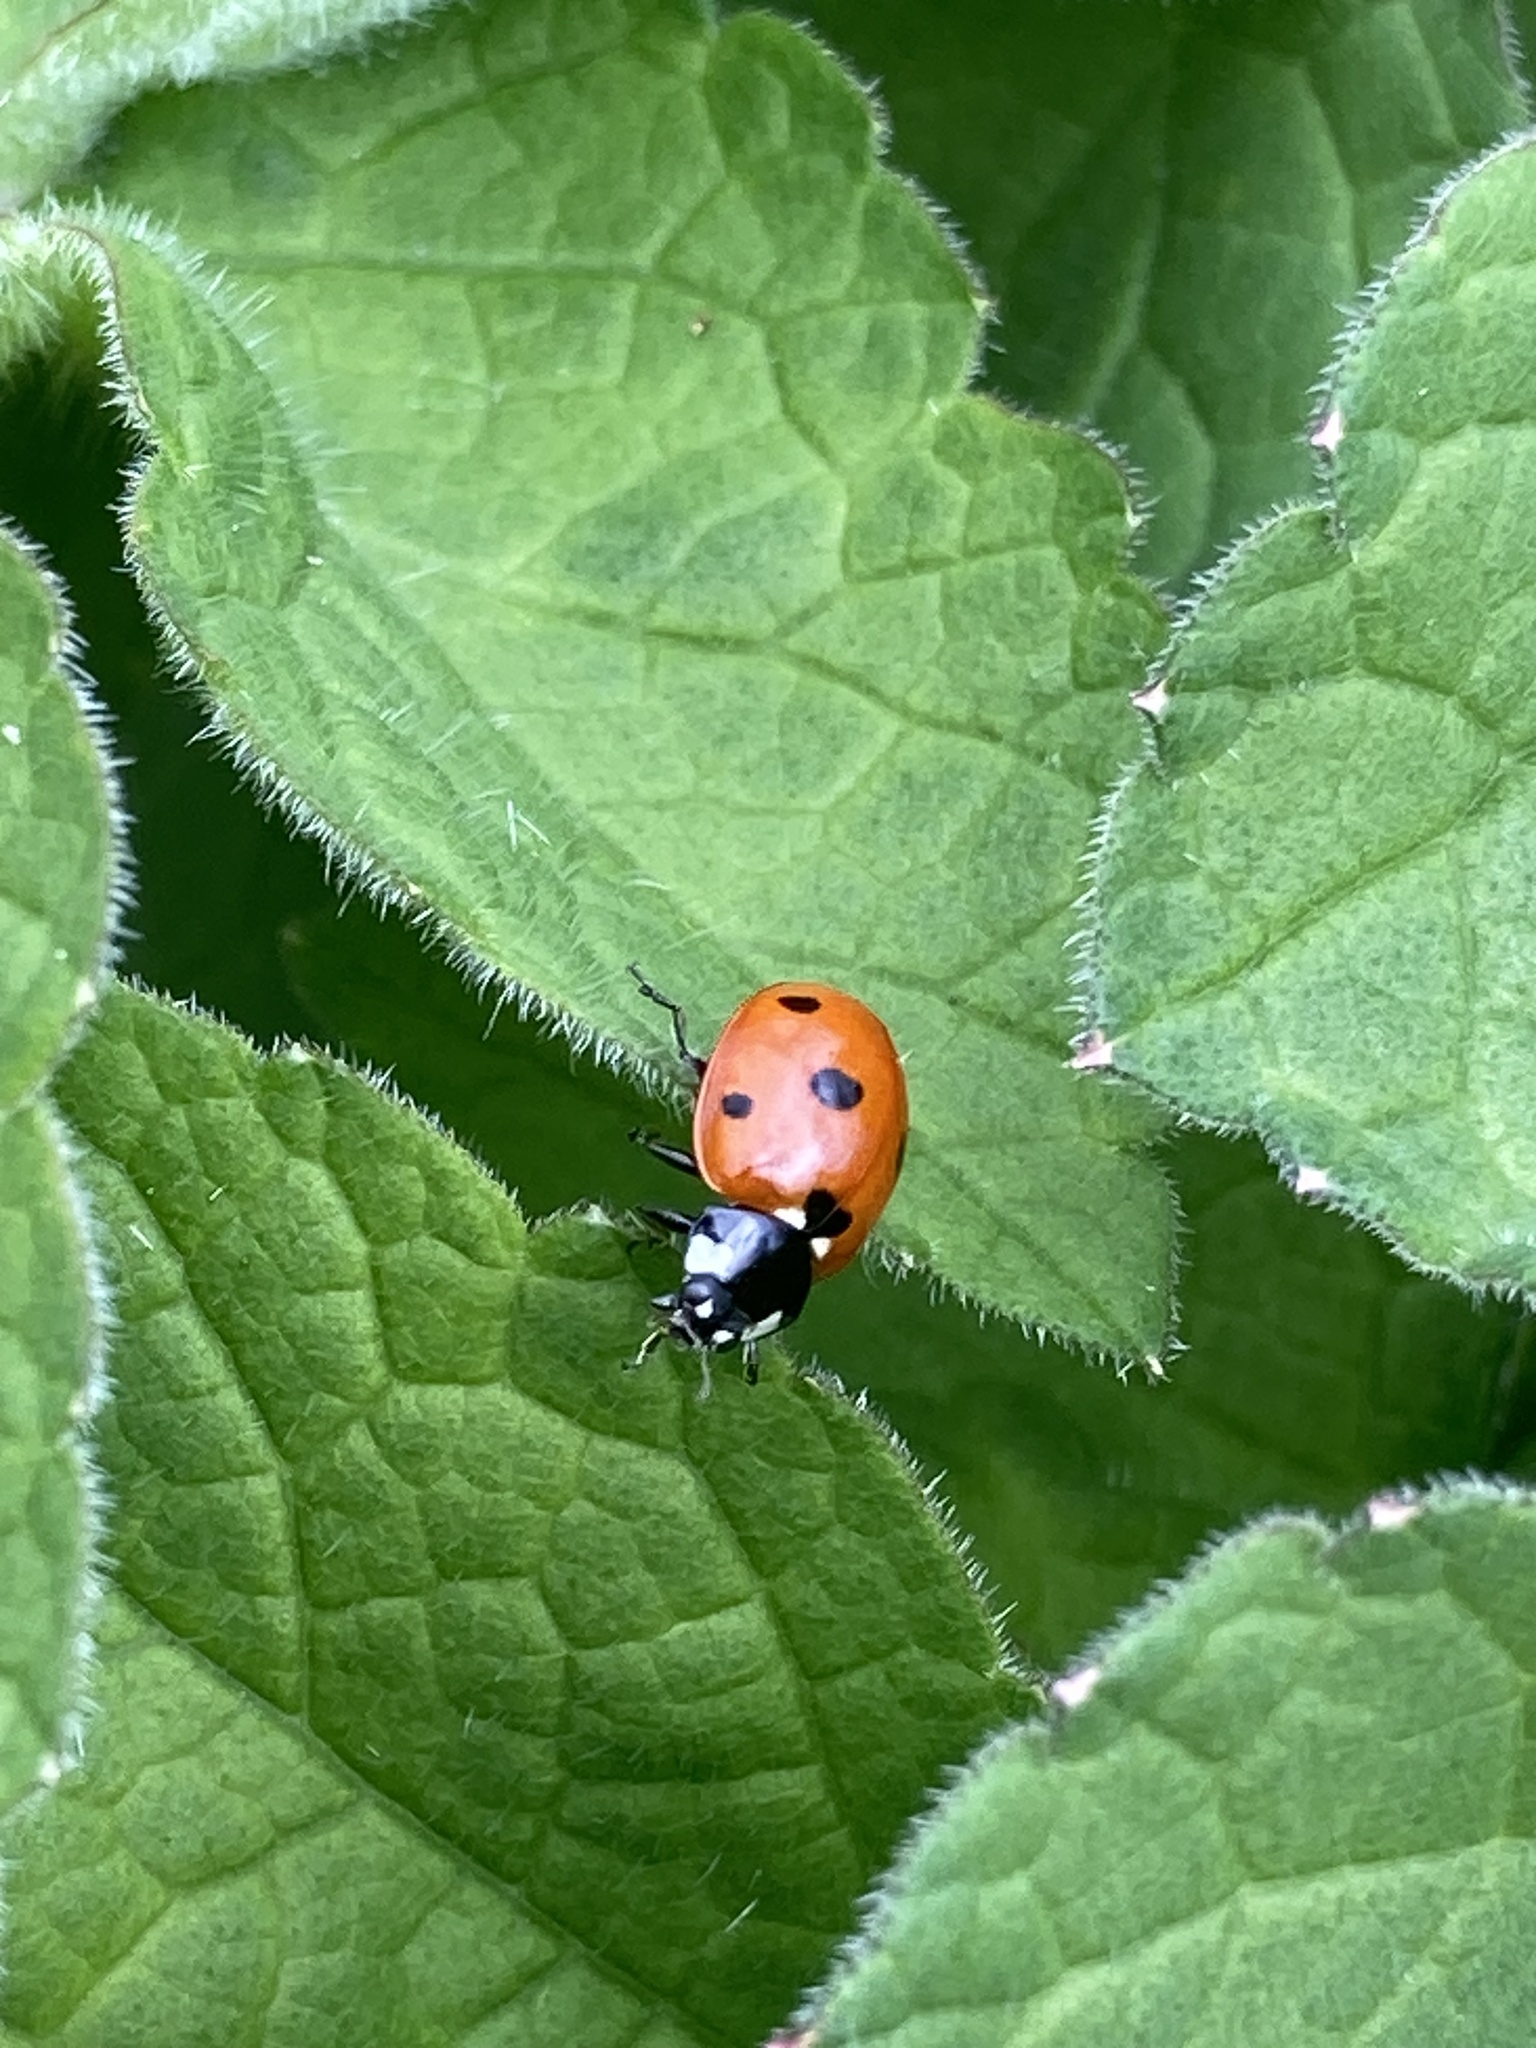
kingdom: Animalia
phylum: Arthropoda
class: Insecta
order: Coleoptera
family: Coccinellidae
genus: Coccinella
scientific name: Coccinella septempunctata
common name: Sevenspotted lady beetle
